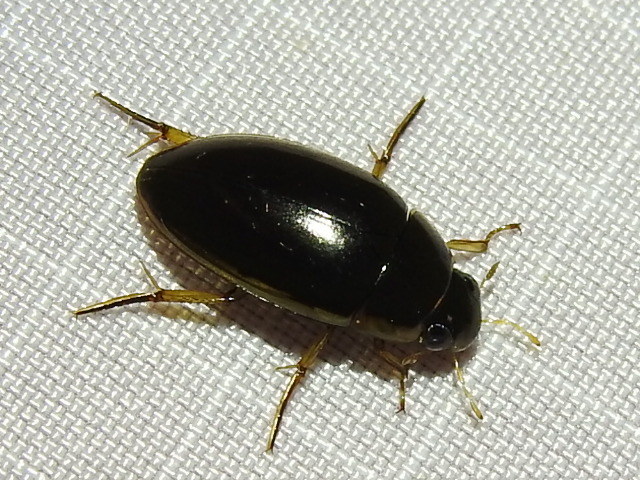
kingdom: Animalia
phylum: Arthropoda
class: Insecta
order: Coleoptera
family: Hydrophilidae
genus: Tropisternus
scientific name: Tropisternus lateralis
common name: Lateral-banded water scavenger beetle
